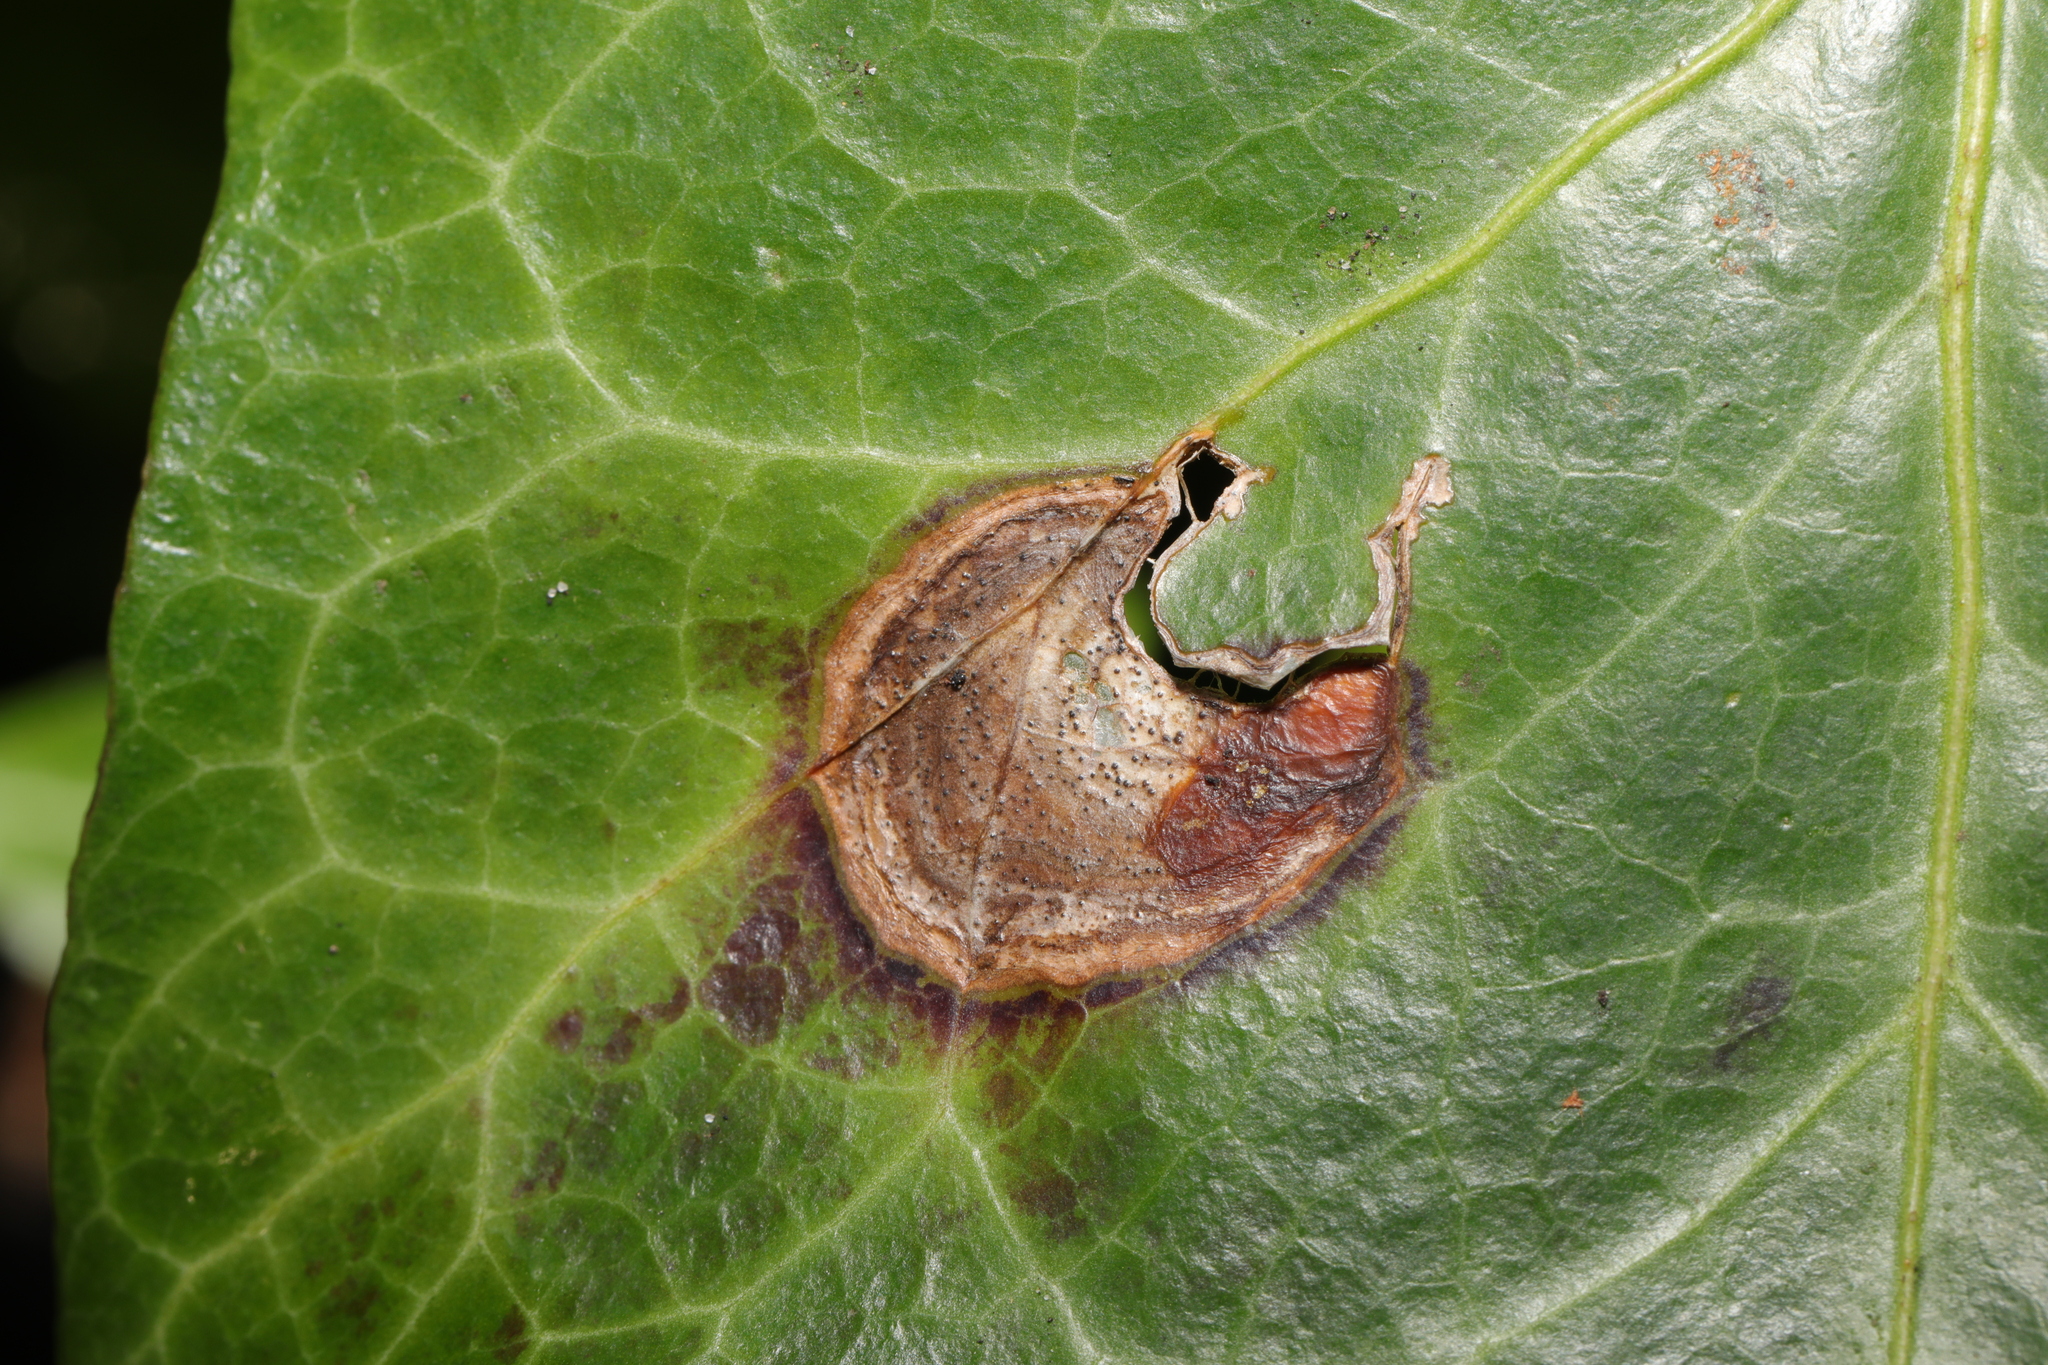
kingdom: Fungi
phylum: Ascomycota
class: Dothideomycetes
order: Pleosporales
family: Didymellaceae
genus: Boeremia
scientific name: Boeremia hedericola
